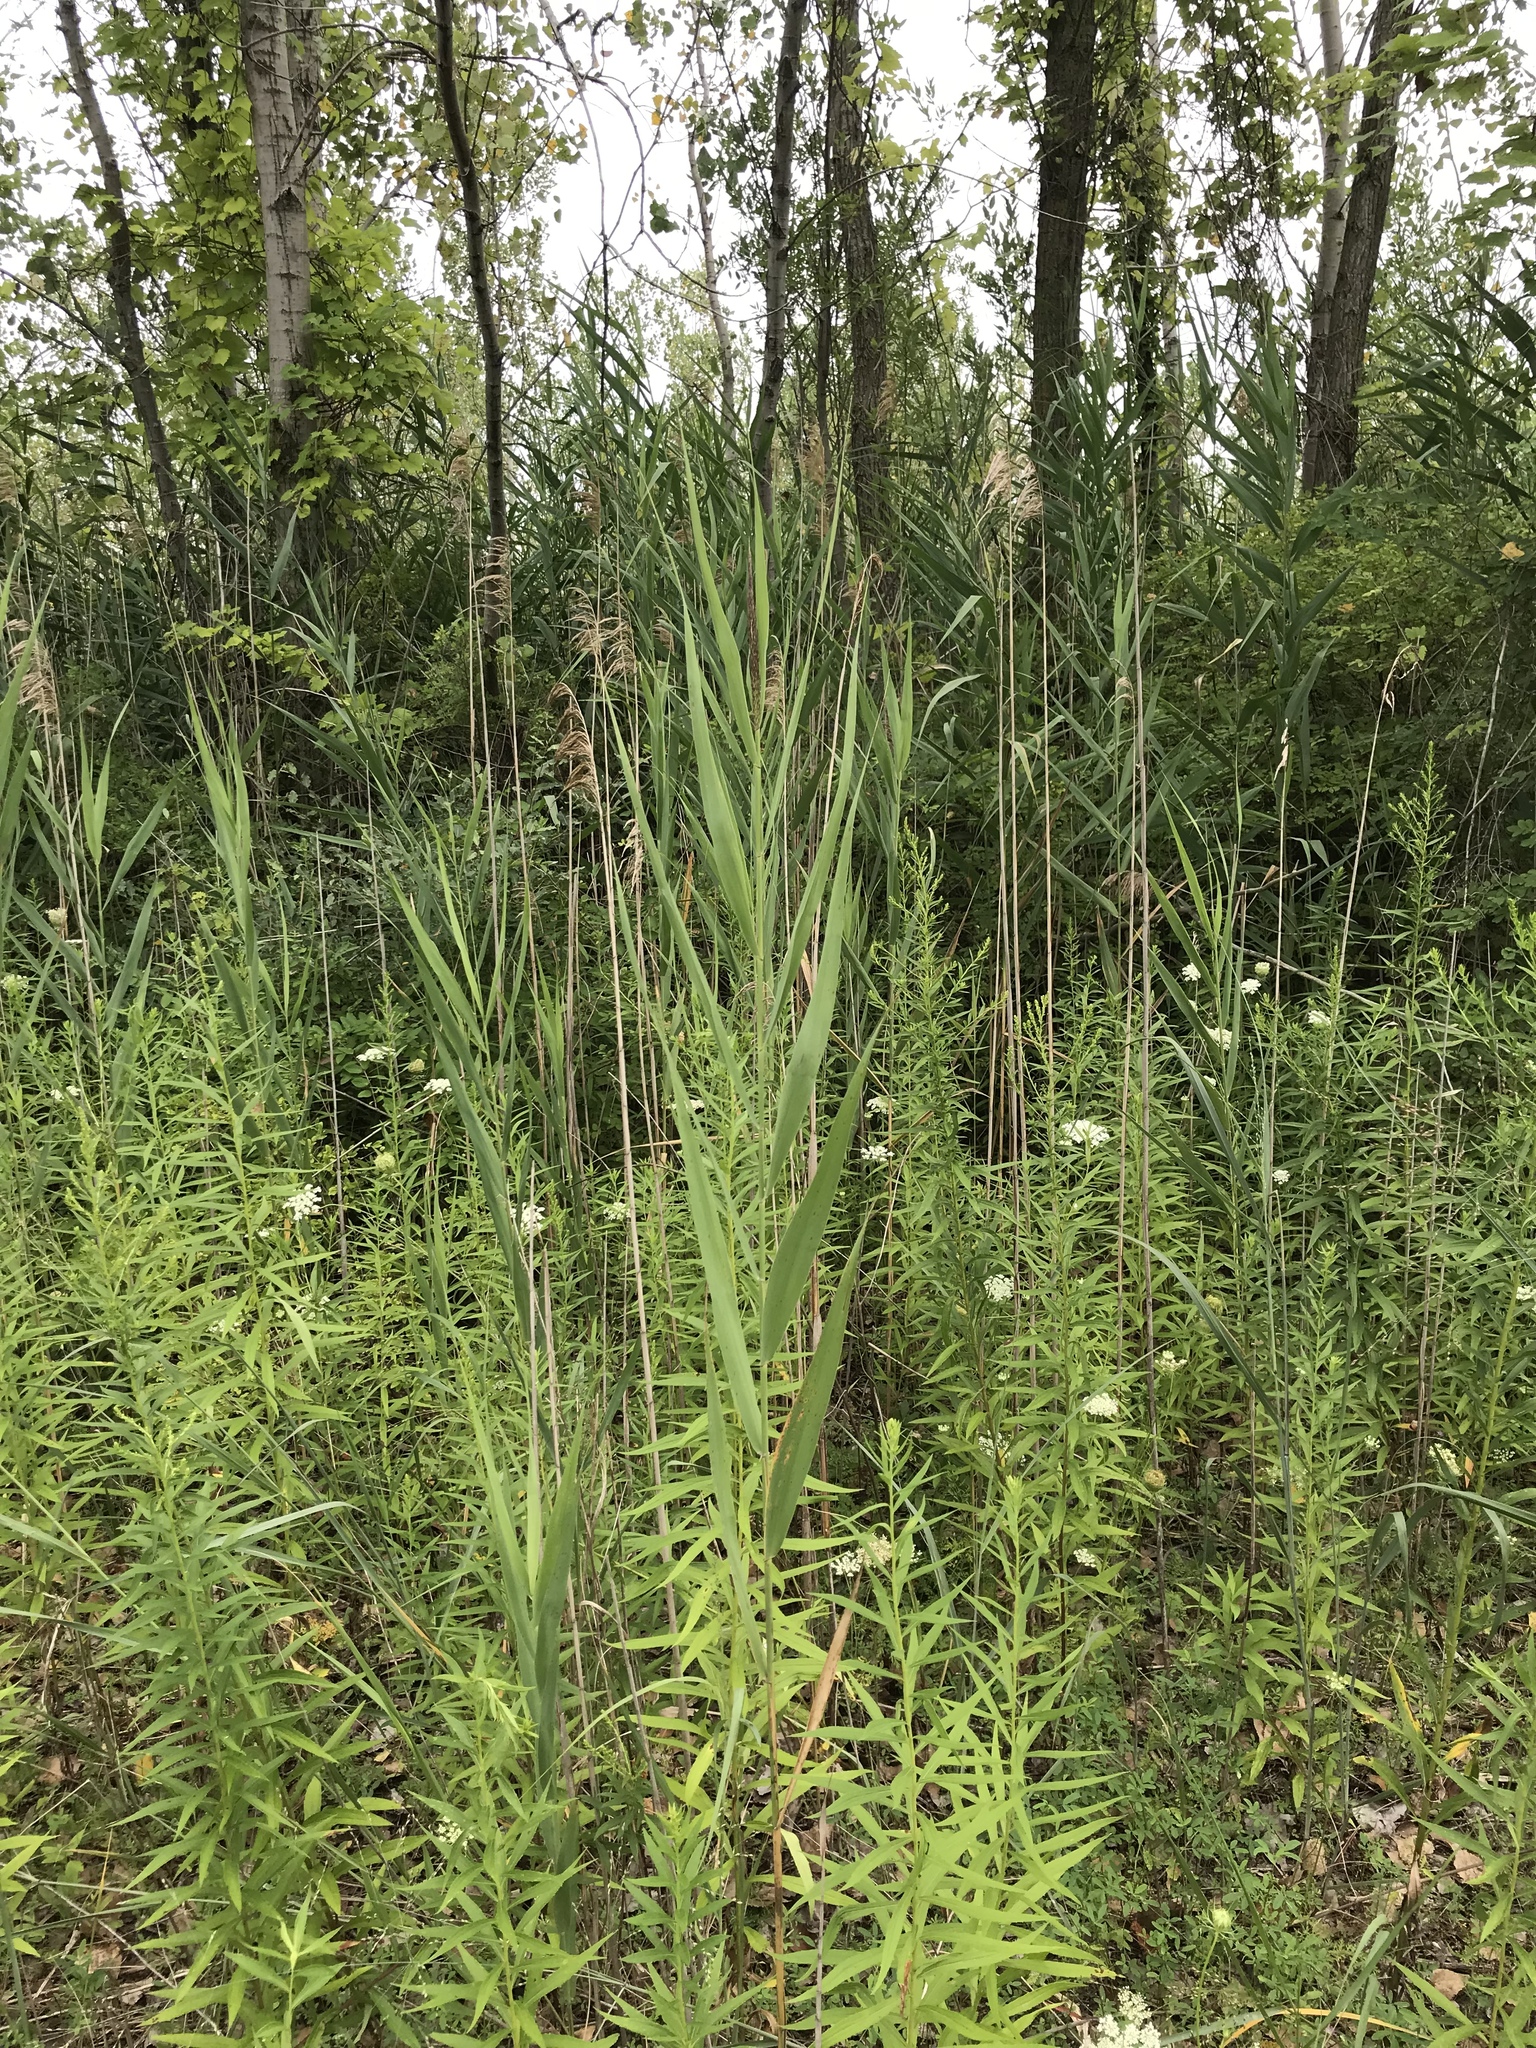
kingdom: Plantae
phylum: Tracheophyta
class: Liliopsida
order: Poales
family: Poaceae
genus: Phragmites
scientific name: Phragmites australis
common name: Common reed
